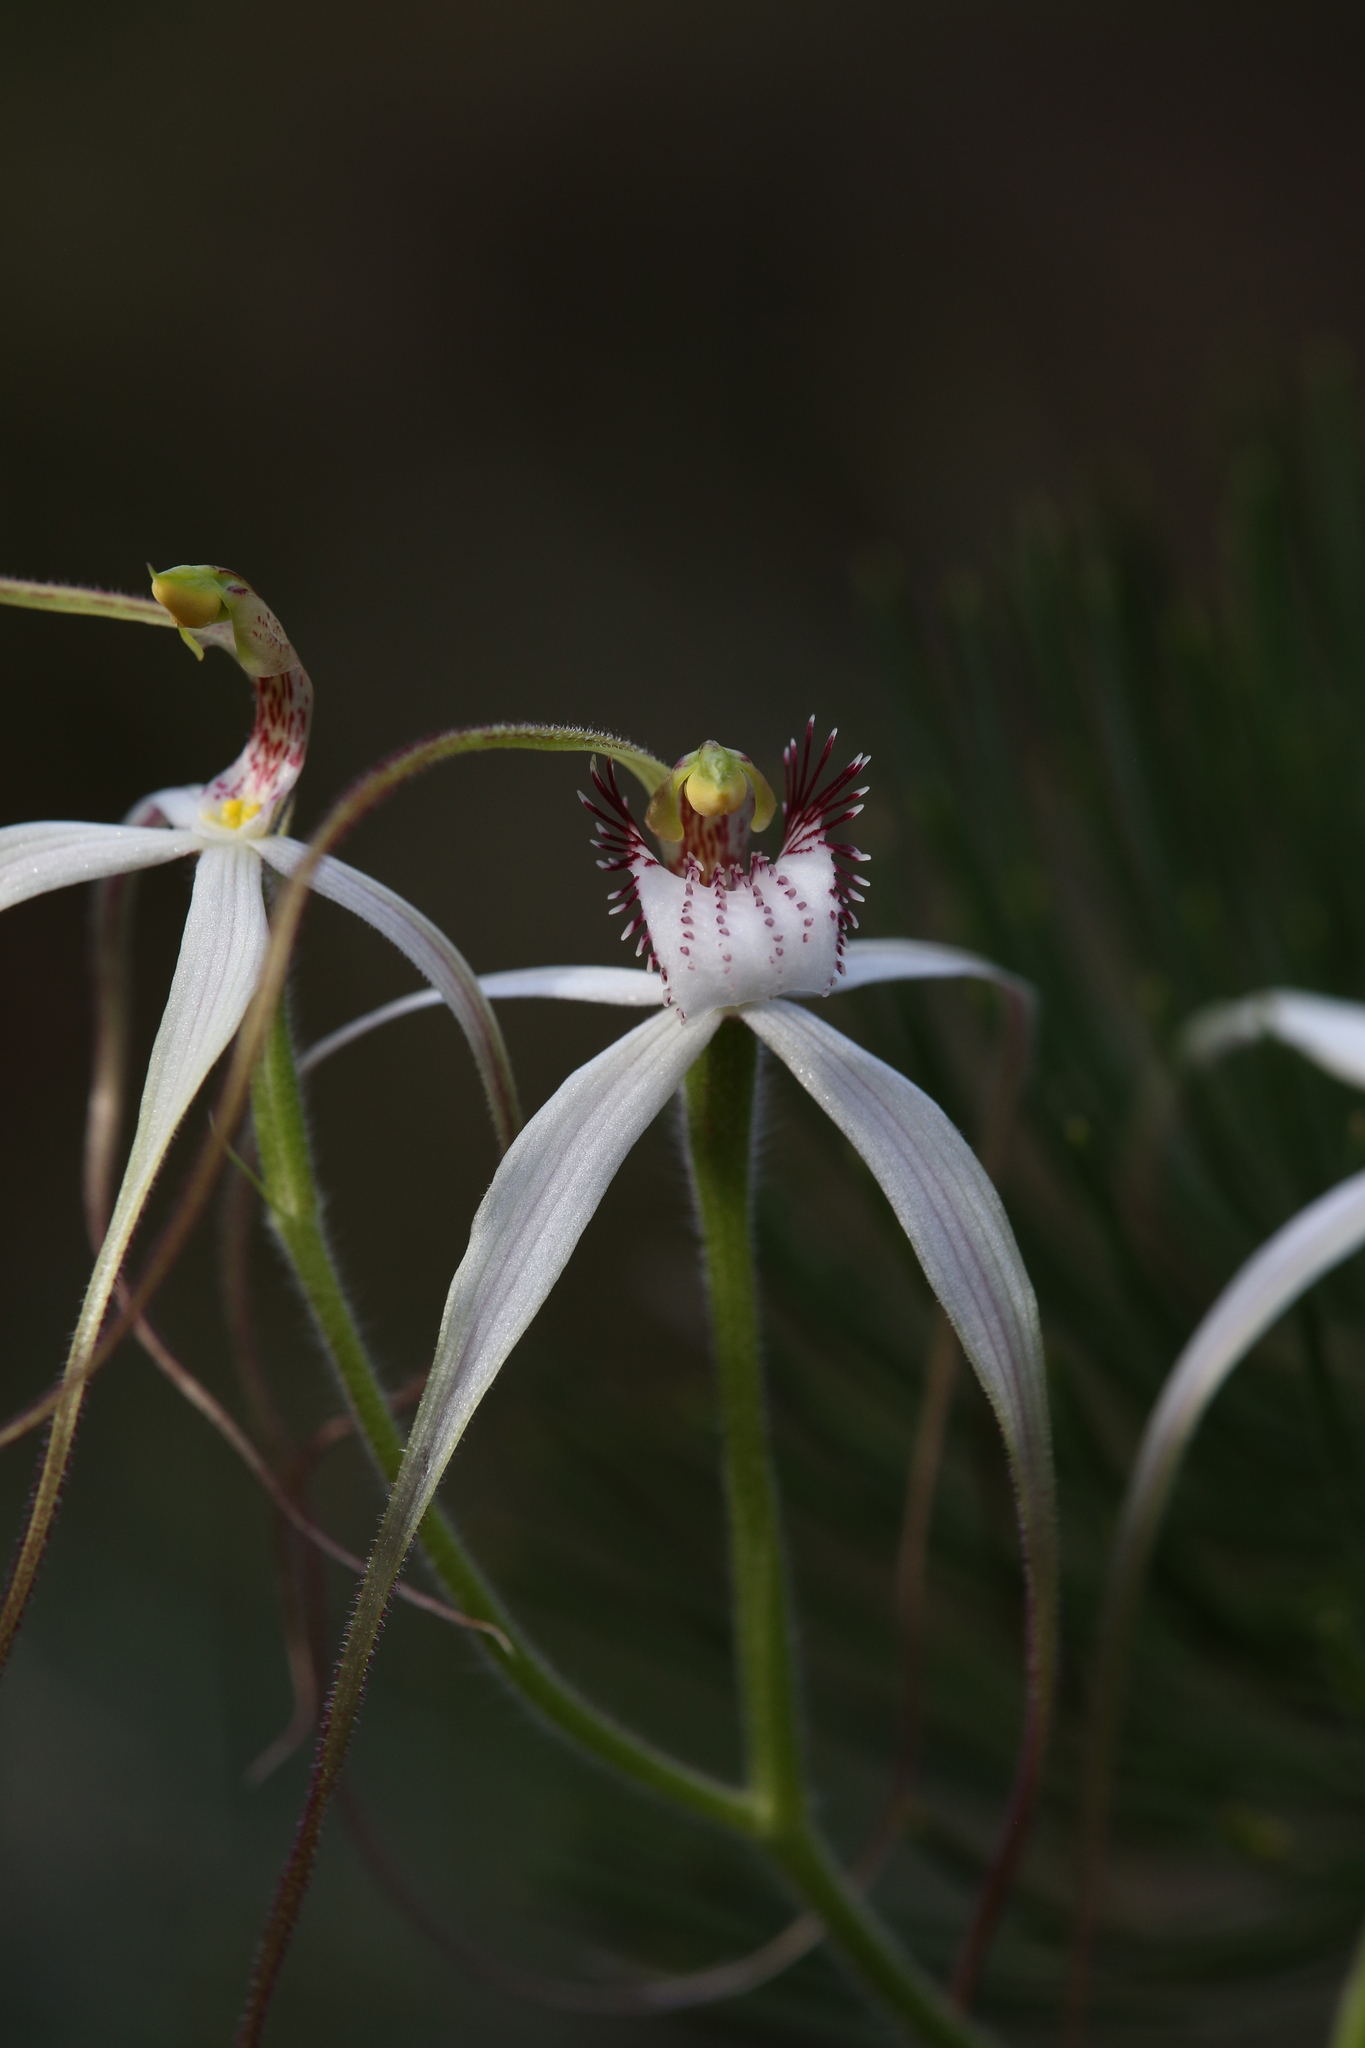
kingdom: Plantae
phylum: Tracheophyta
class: Liliopsida
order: Asparagales
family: Orchidaceae
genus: Caladenia
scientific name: Caladenia longicauda
